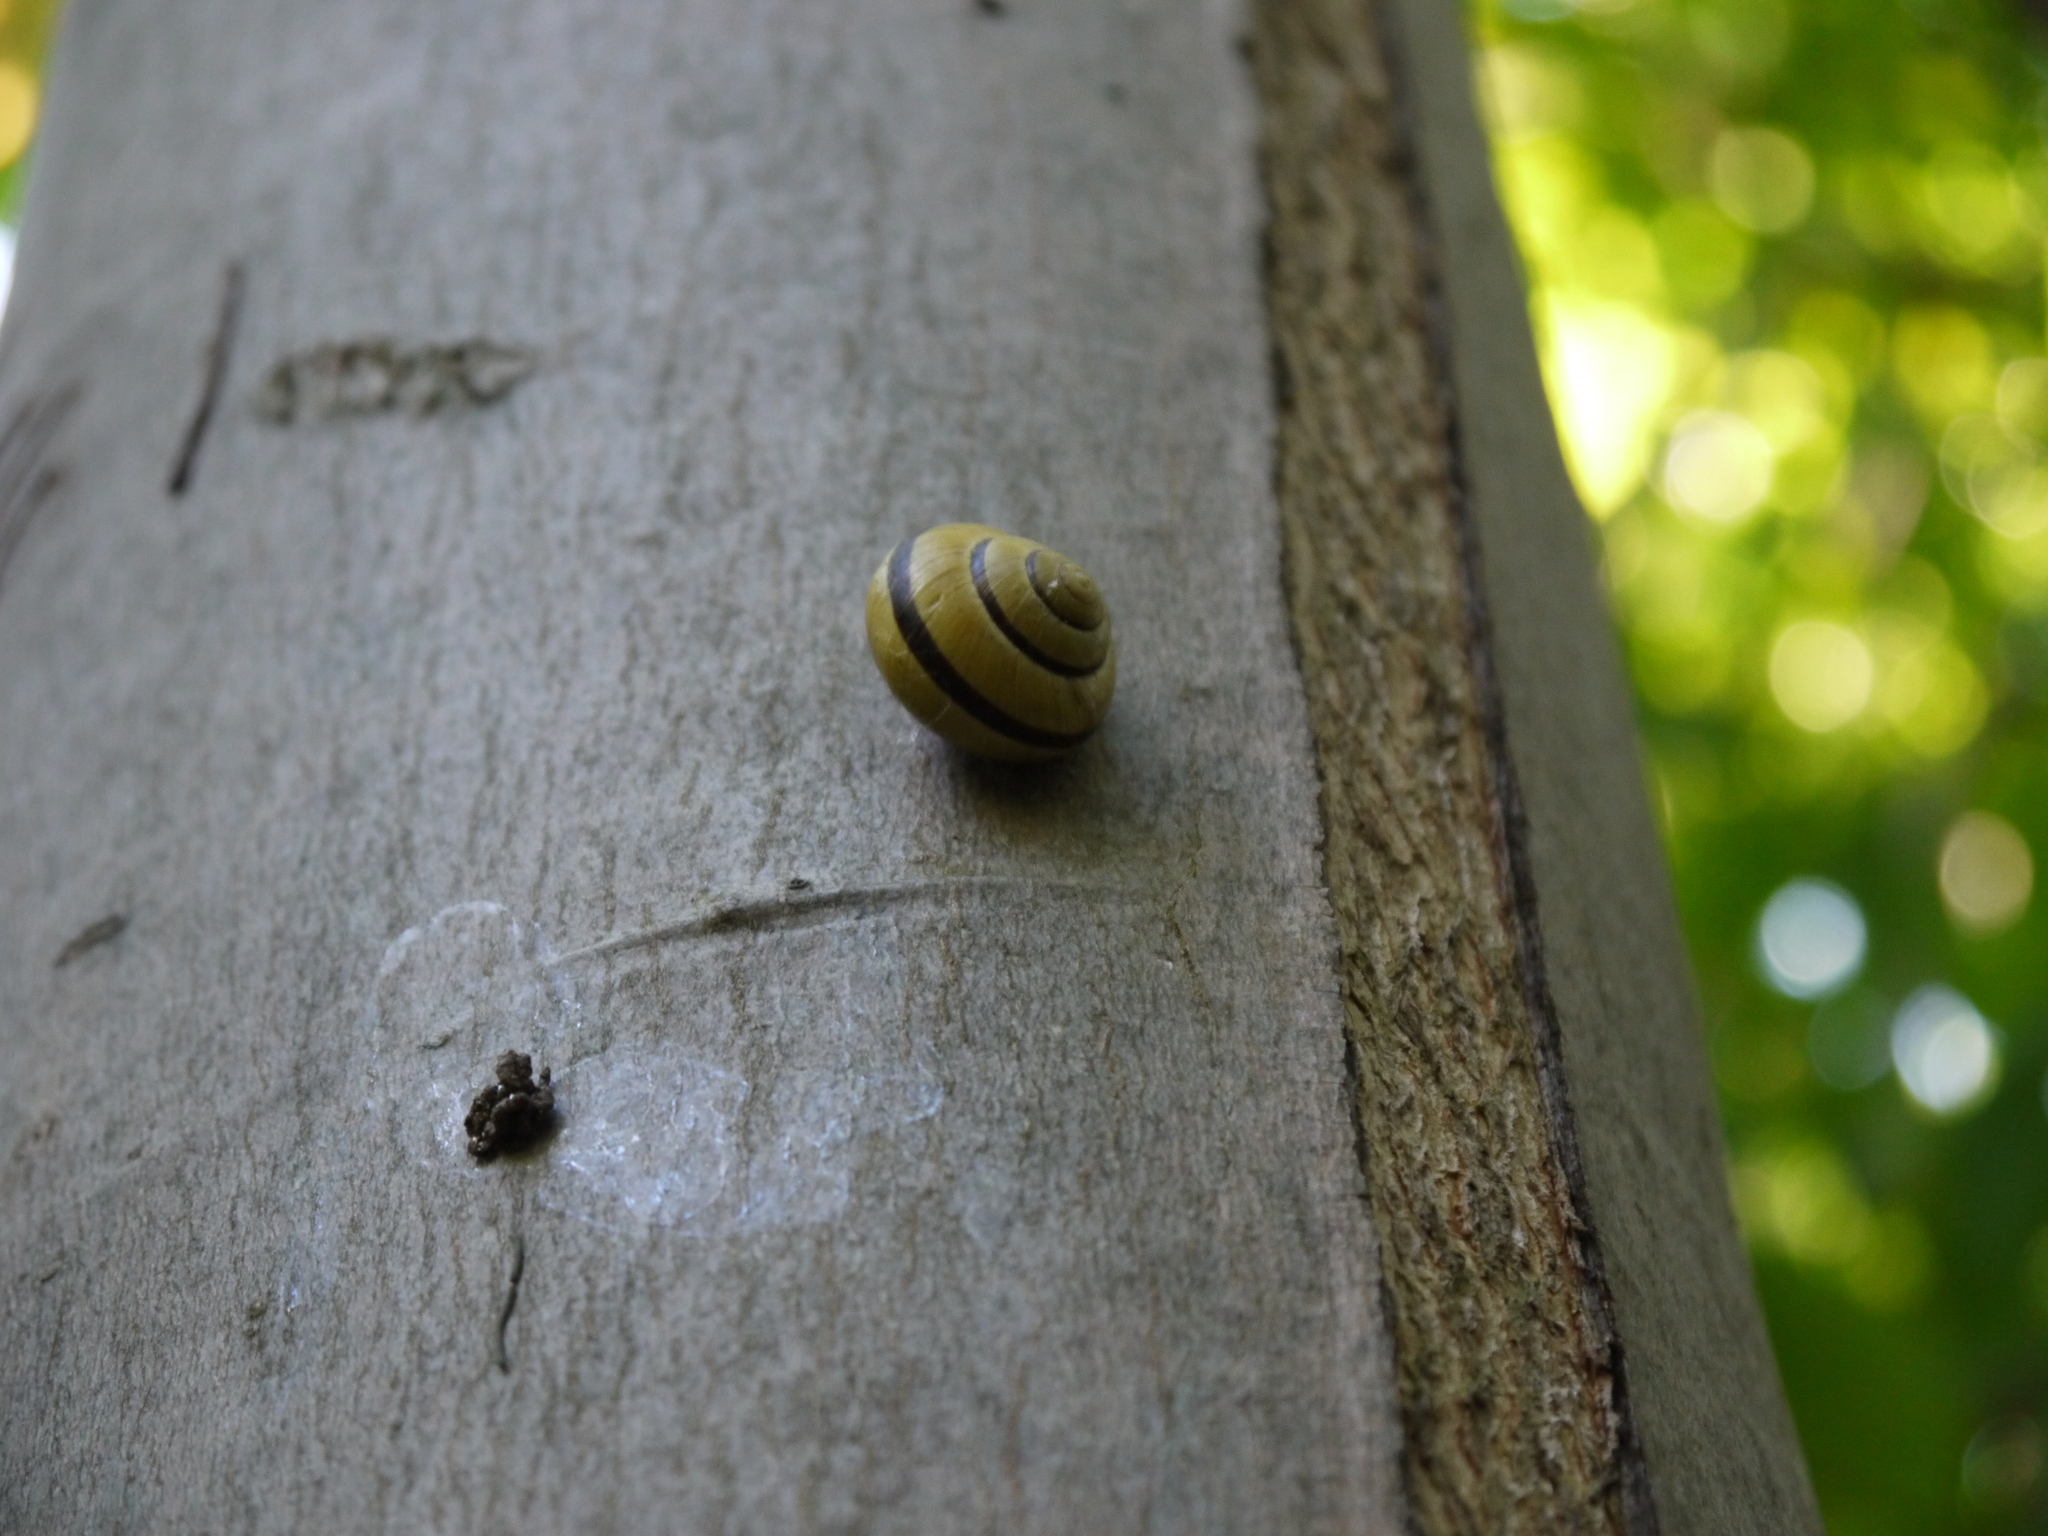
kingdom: Animalia
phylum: Mollusca
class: Gastropoda
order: Stylommatophora
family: Helicidae
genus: Cepaea
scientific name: Cepaea nemoralis
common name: Grovesnail
